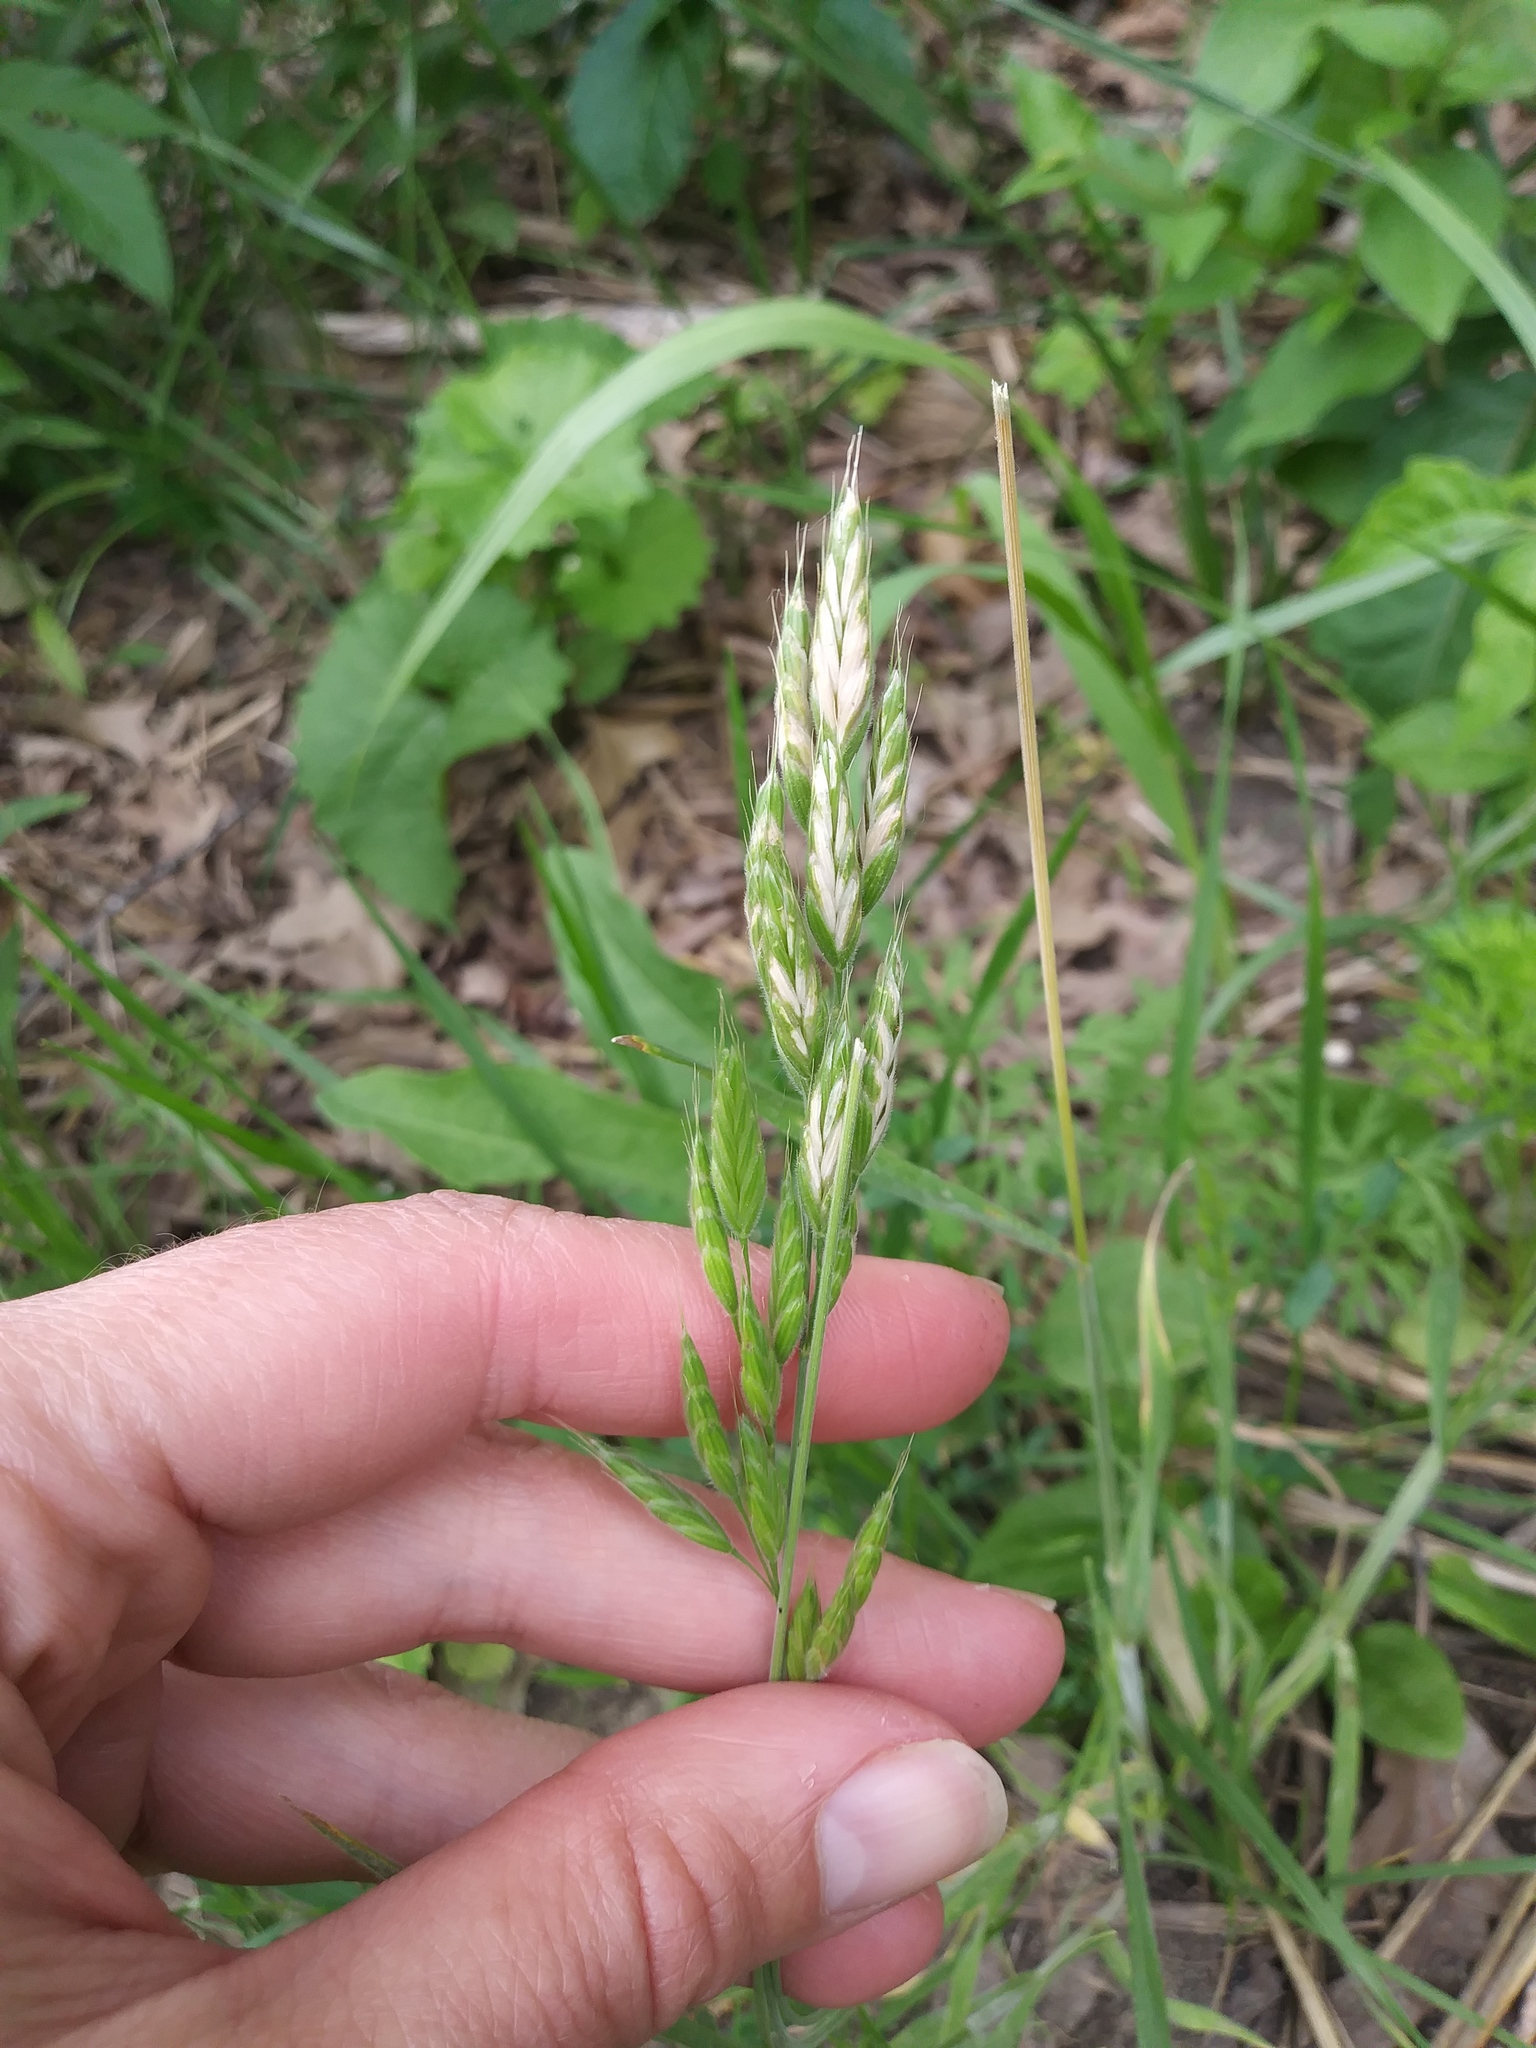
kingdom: Plantae
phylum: Tracheophyta
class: Liliopsida
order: Poales
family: Poaceae
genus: Bromus
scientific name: Bromus hordeaceus
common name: Soft brome
